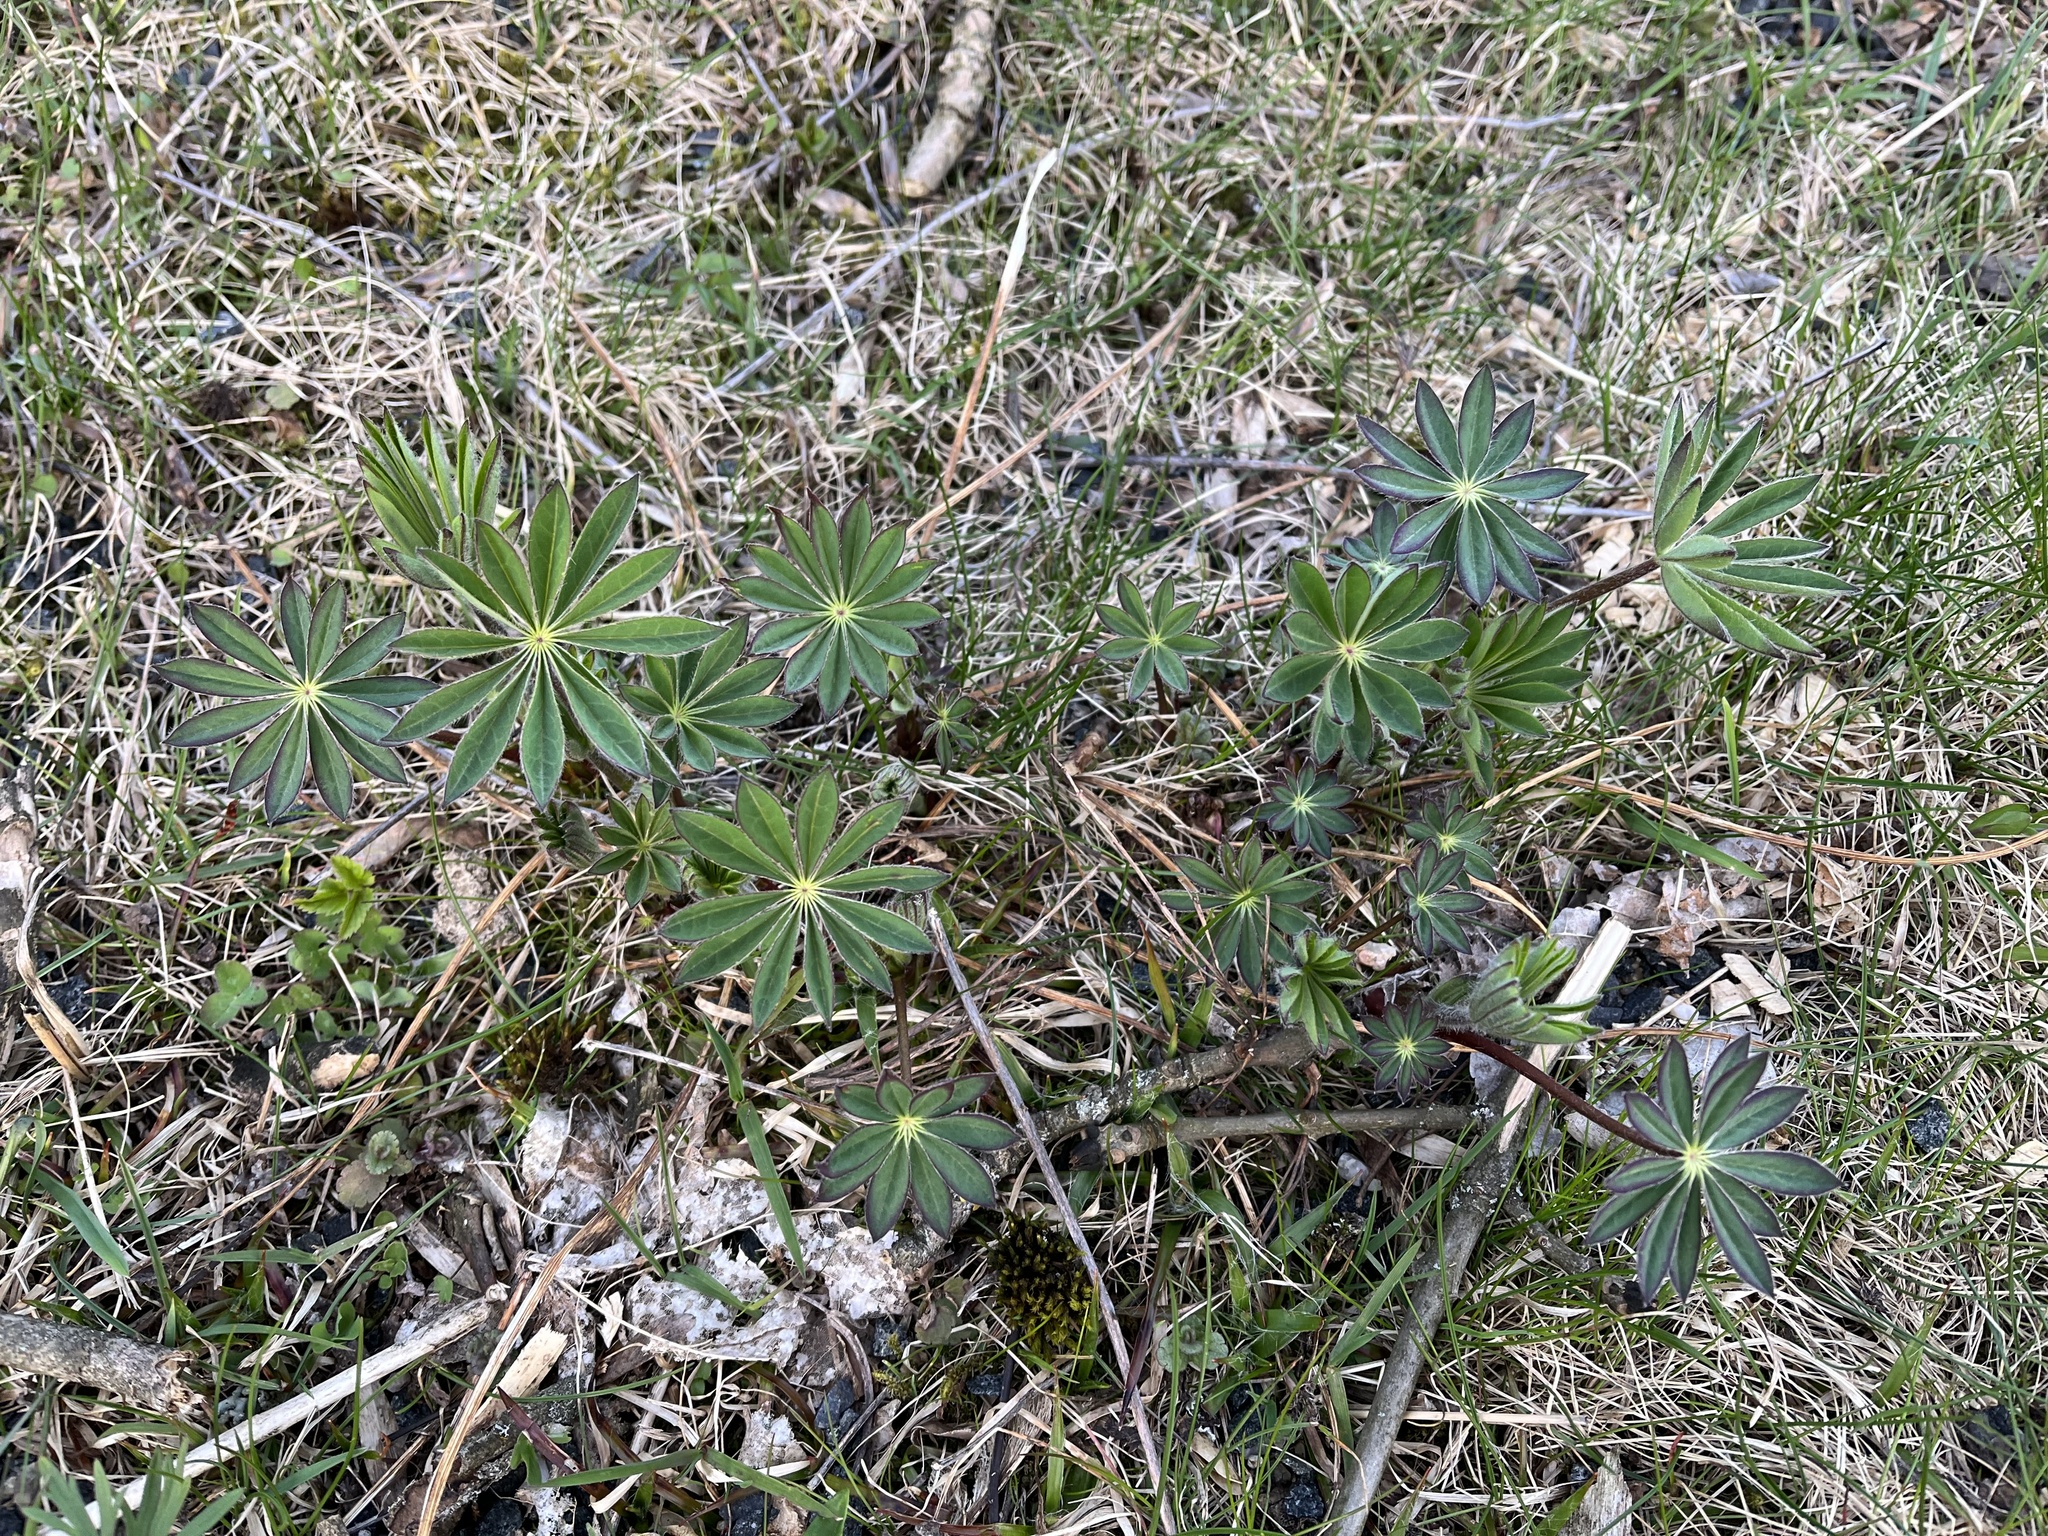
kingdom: Plantae
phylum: Tracheophyta
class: Magnoliopsida
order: Fabales
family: Fabaceae
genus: Lupinus
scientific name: Lupinus polyphyllus
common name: Garden lupin
